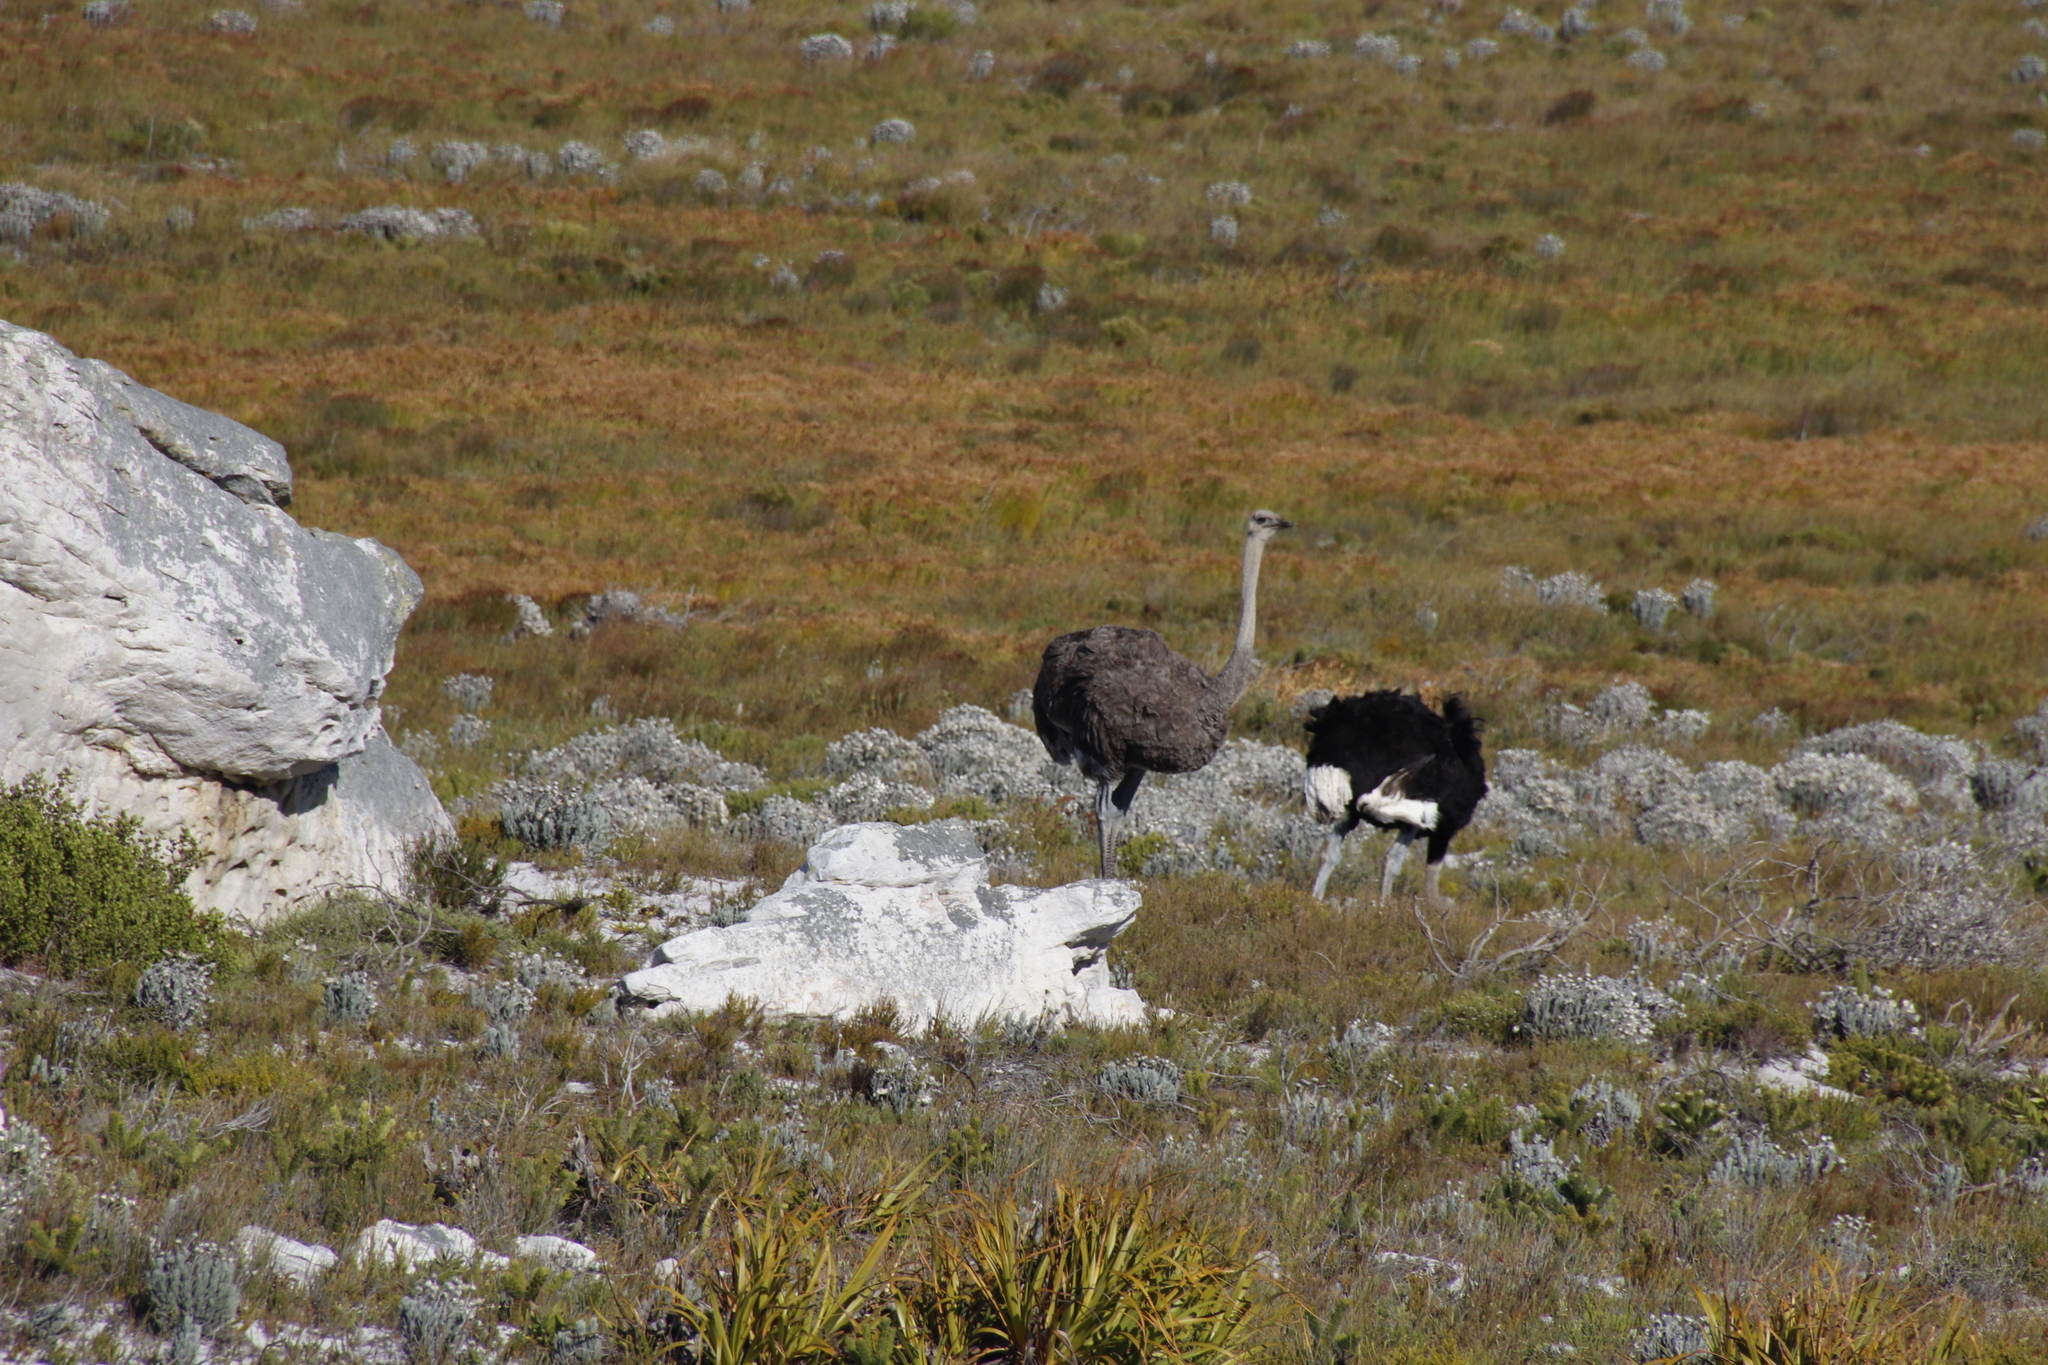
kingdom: Animalia
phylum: Chordata
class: Aves
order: Struthioniformes
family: Struthionidae
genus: Struthio
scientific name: Struthio camelus
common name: Common ostrich
